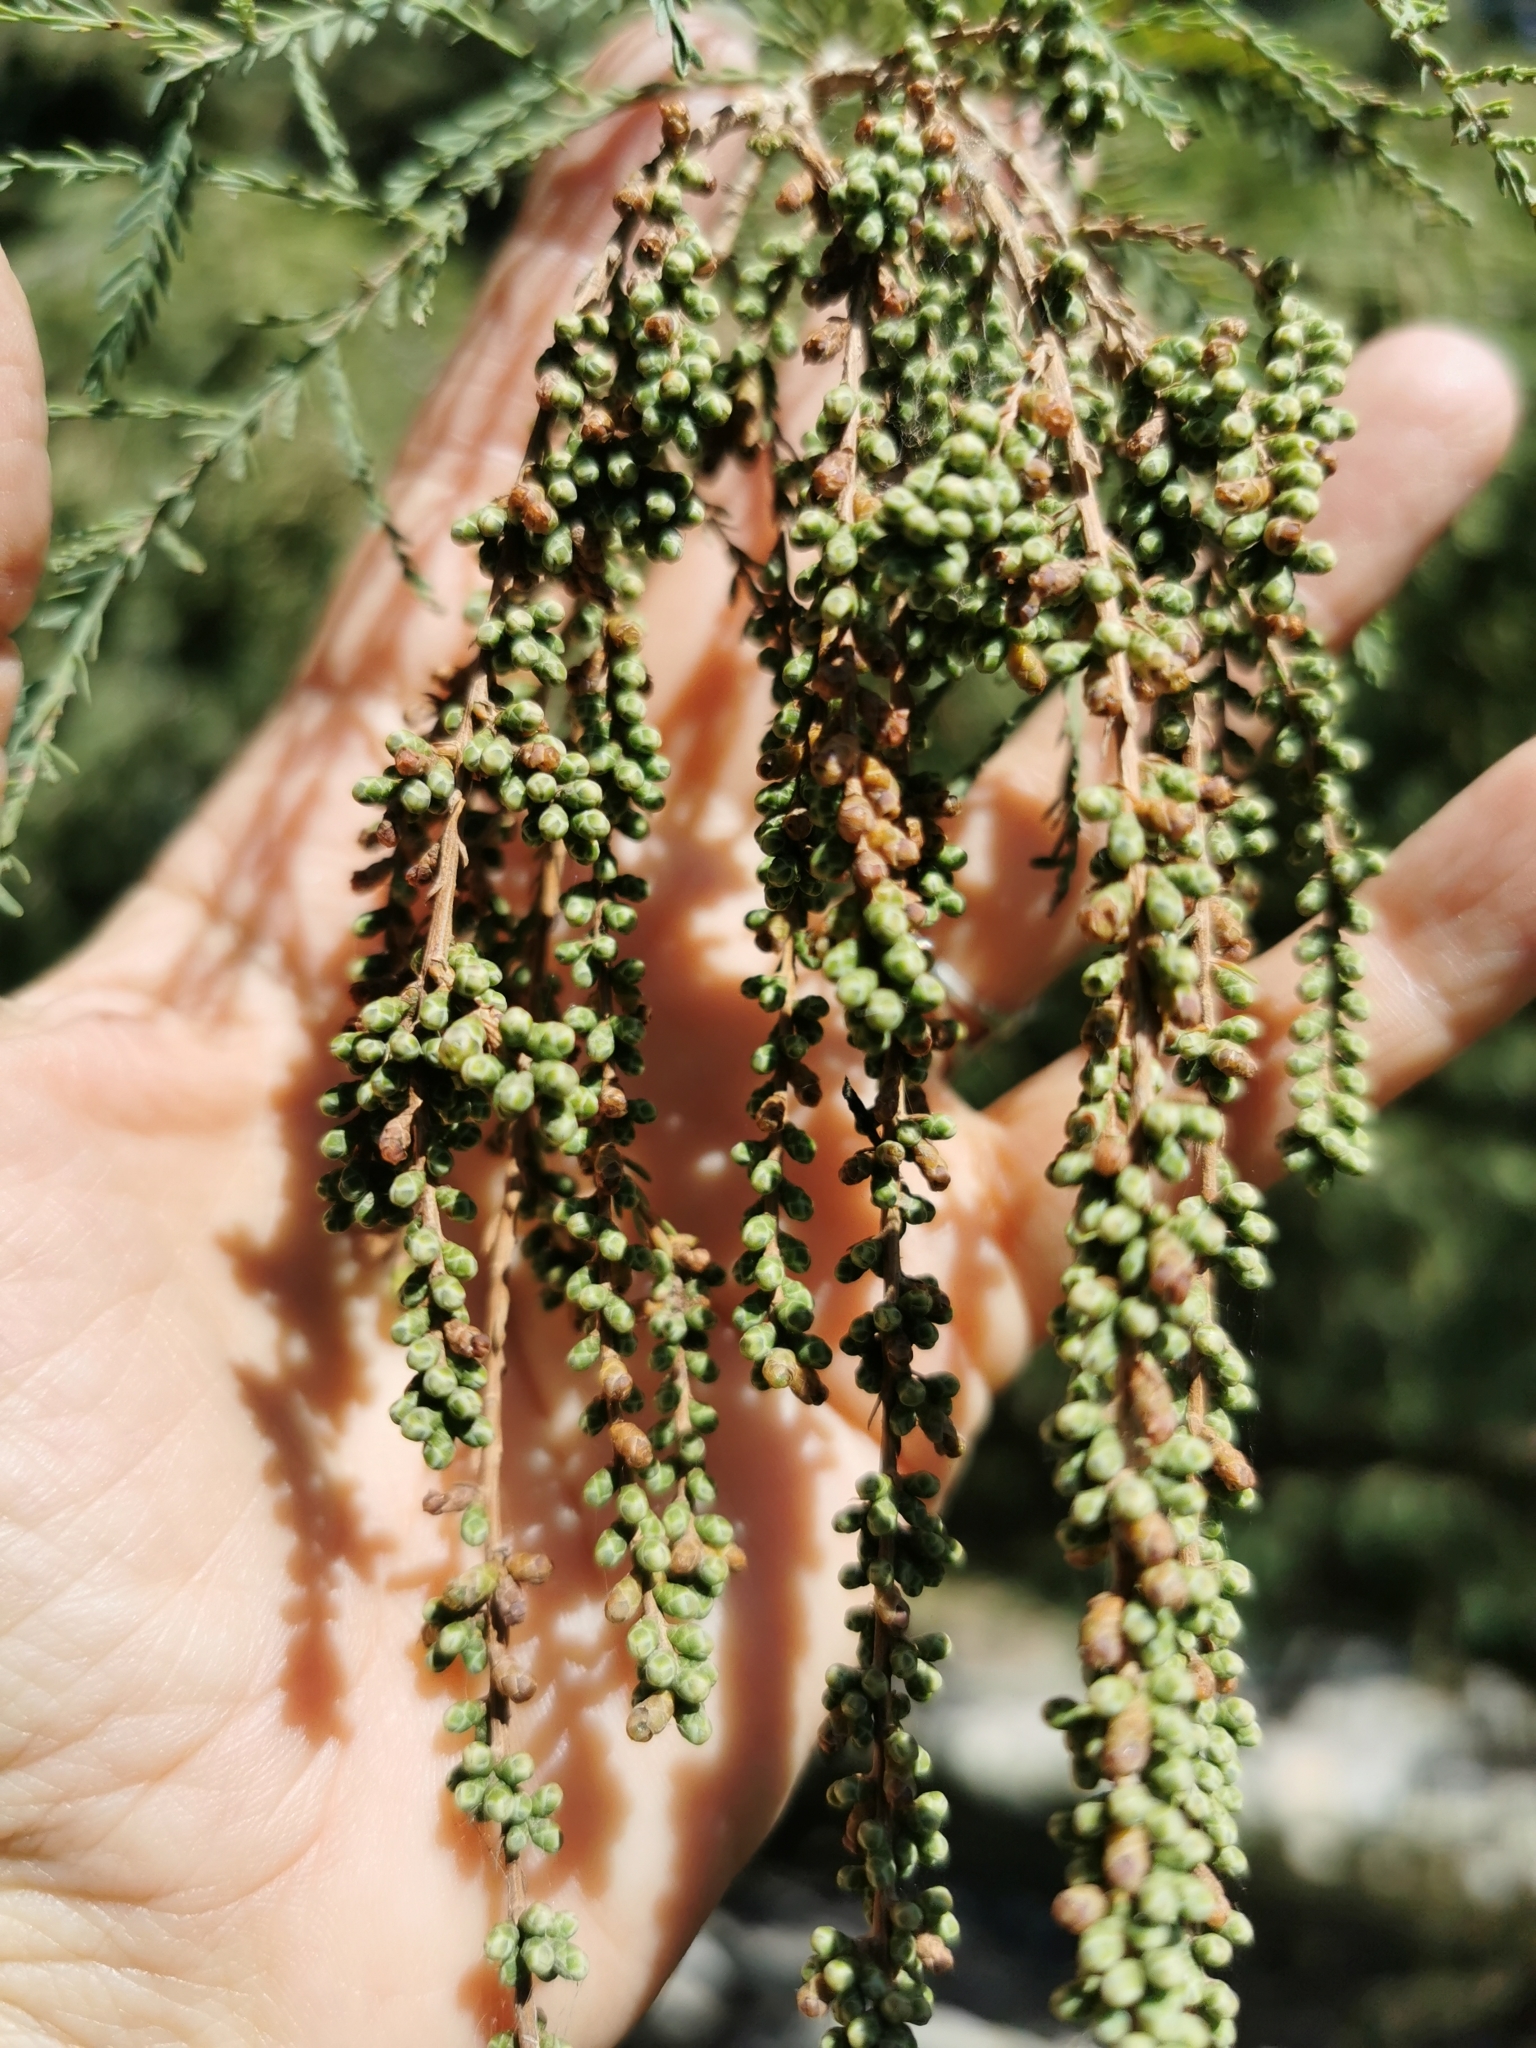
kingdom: Plantae
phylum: Tracheophyta
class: Pinopsida
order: Pinales
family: Cupressaceae
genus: Taxodium
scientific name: Taxodium mucronatum
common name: Montezume bald cypress
